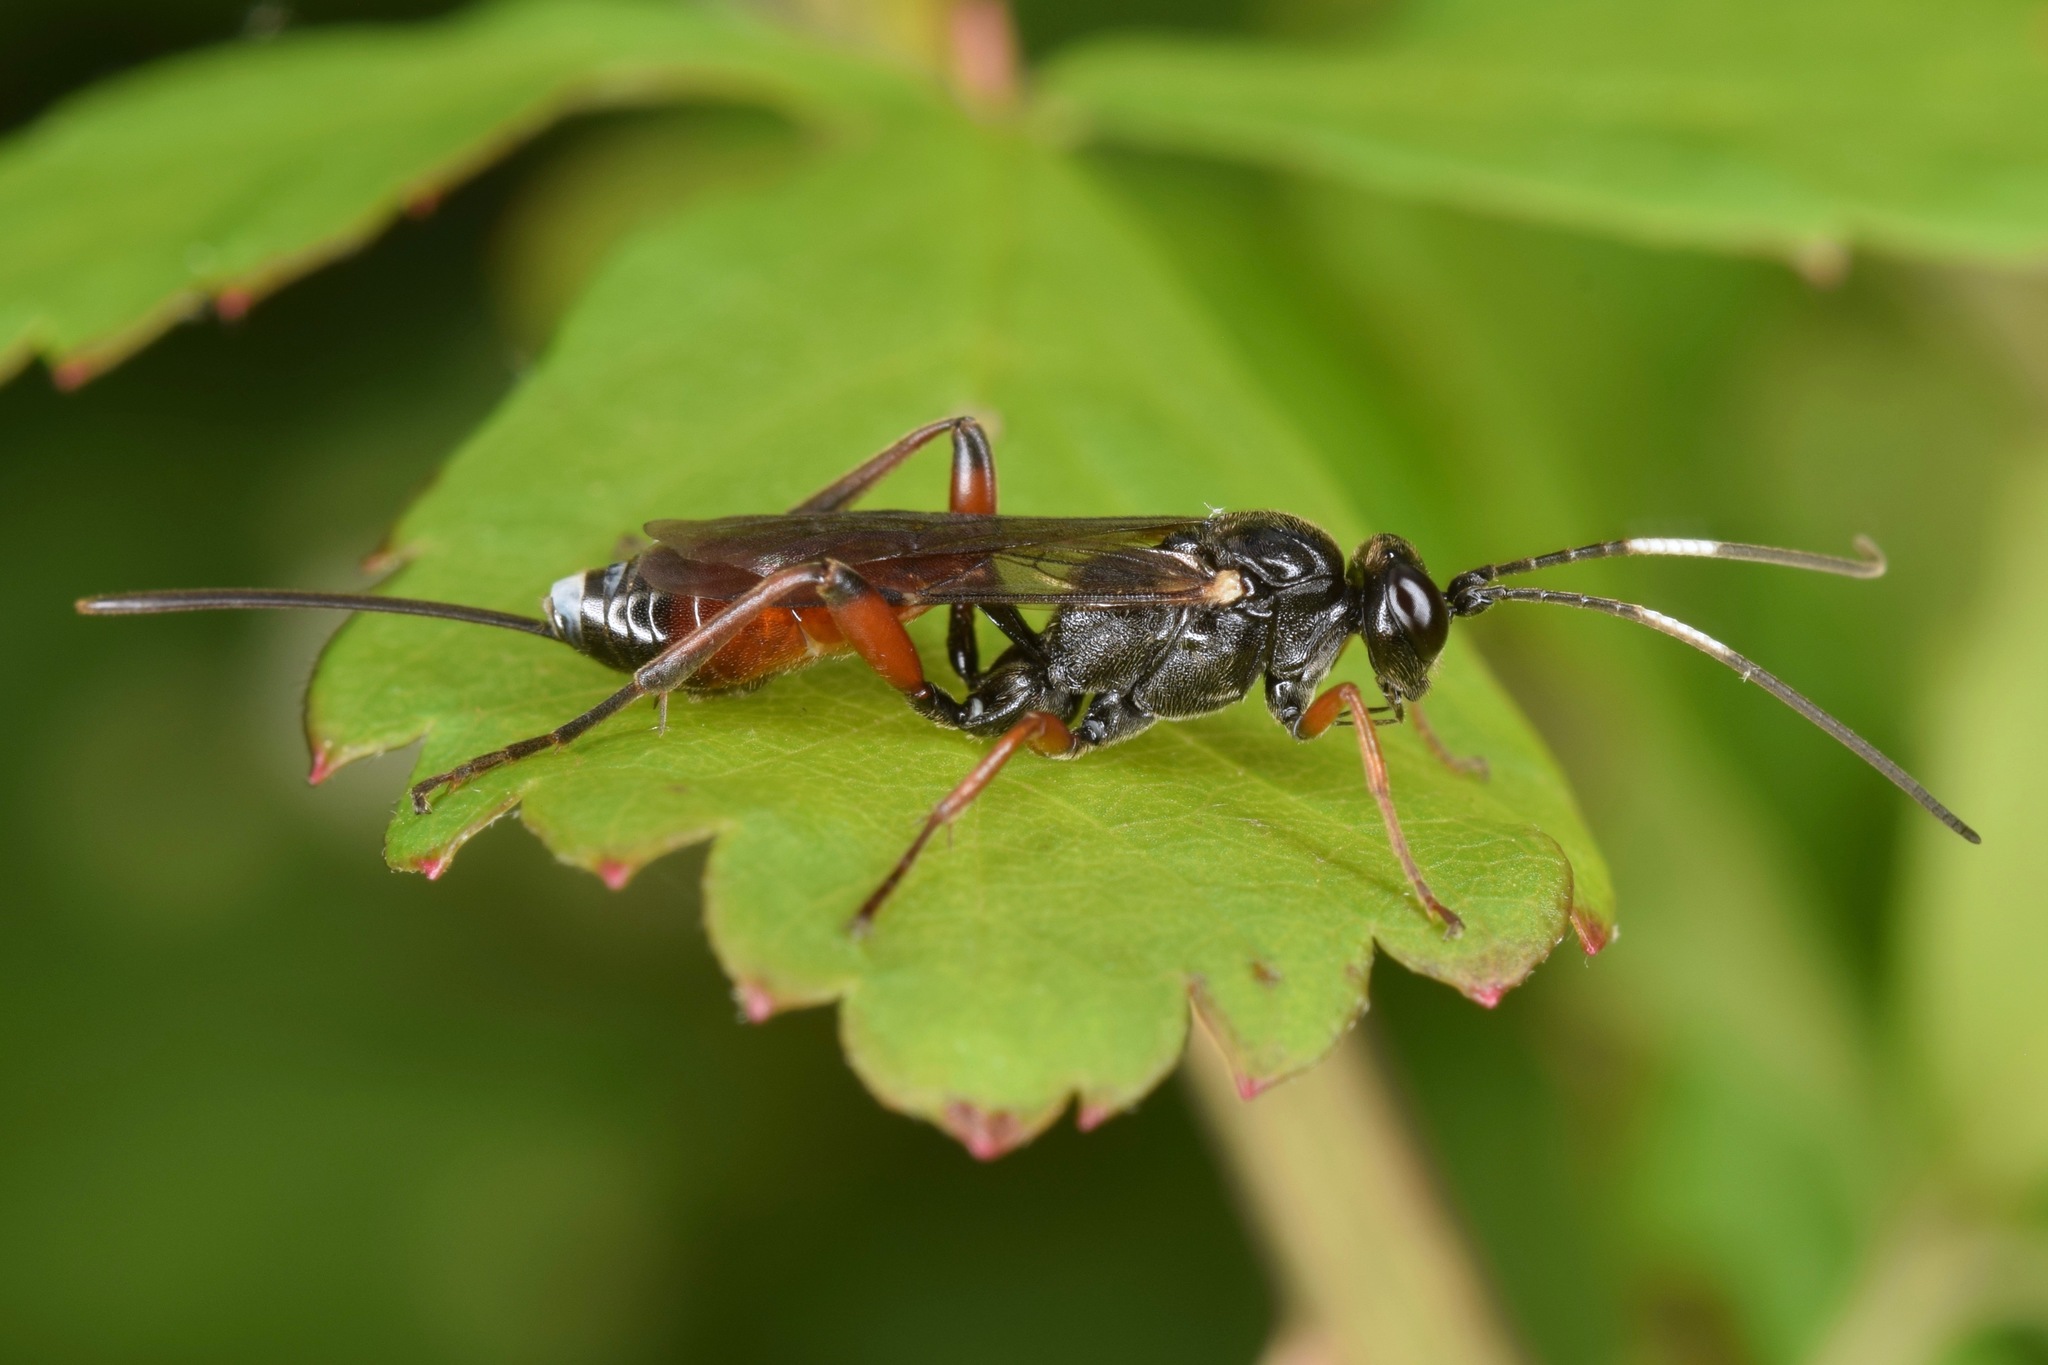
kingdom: Animalia
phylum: Arthropoda
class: Insecta
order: Hymenoptera
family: Ichneumonidae
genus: Aritranis
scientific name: Aritranis director
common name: Ichneumonid wasp
